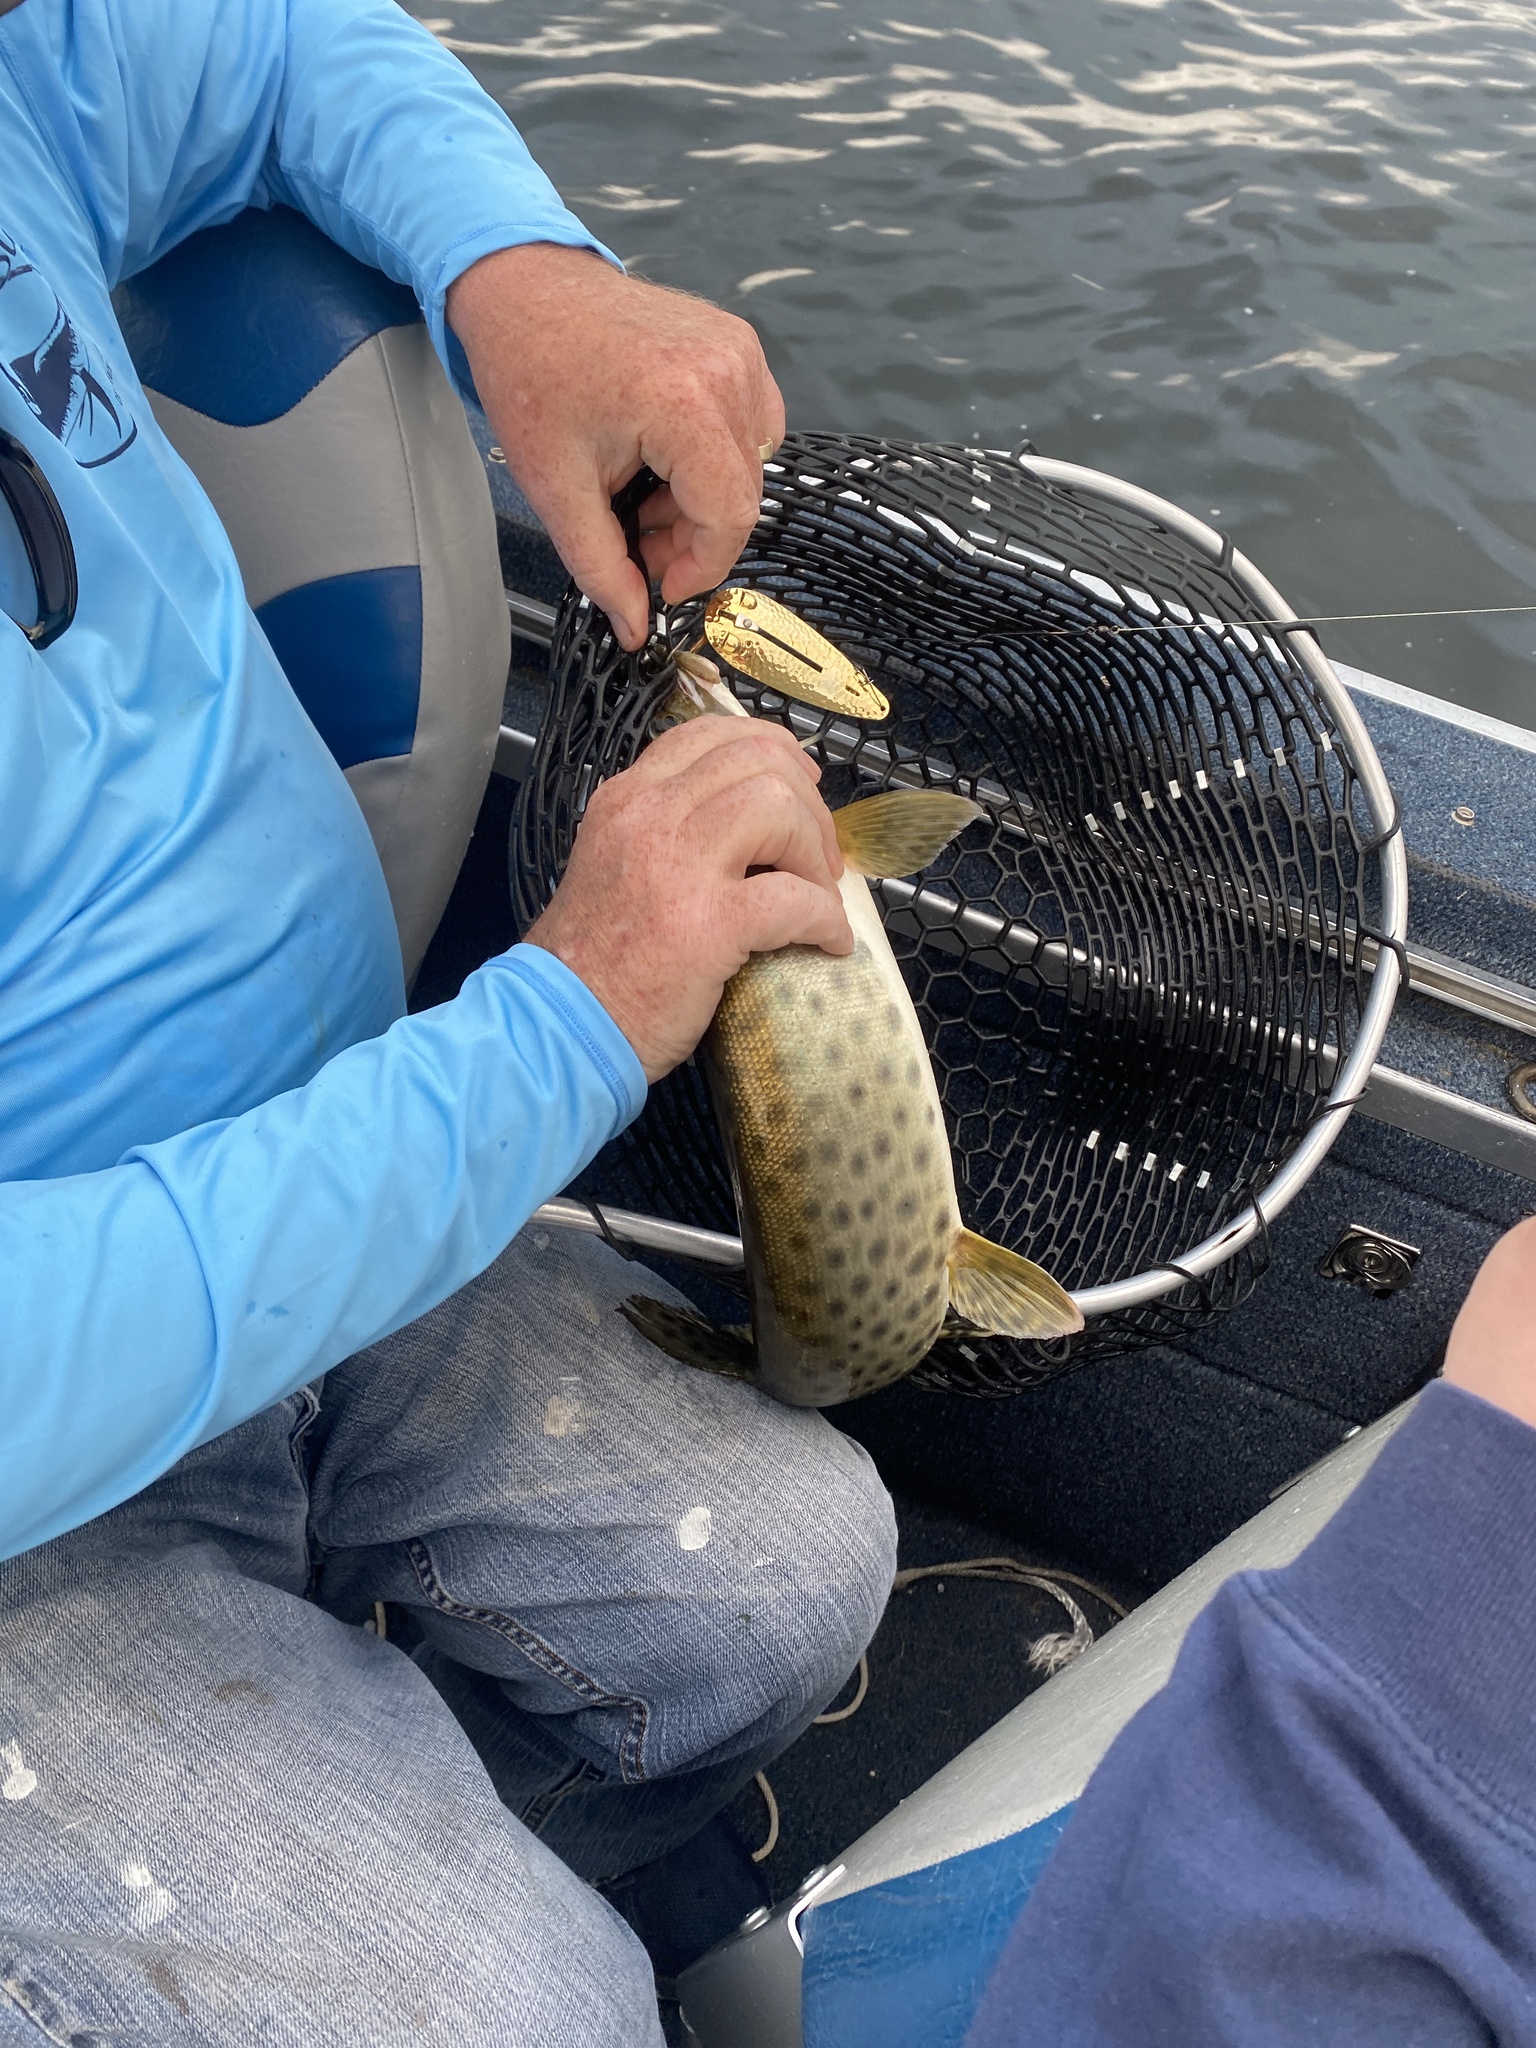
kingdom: Animalia
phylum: Chordata
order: Esociformes
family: Esocidae
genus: Esox
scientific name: Esox masquinongy
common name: Muskellunge
